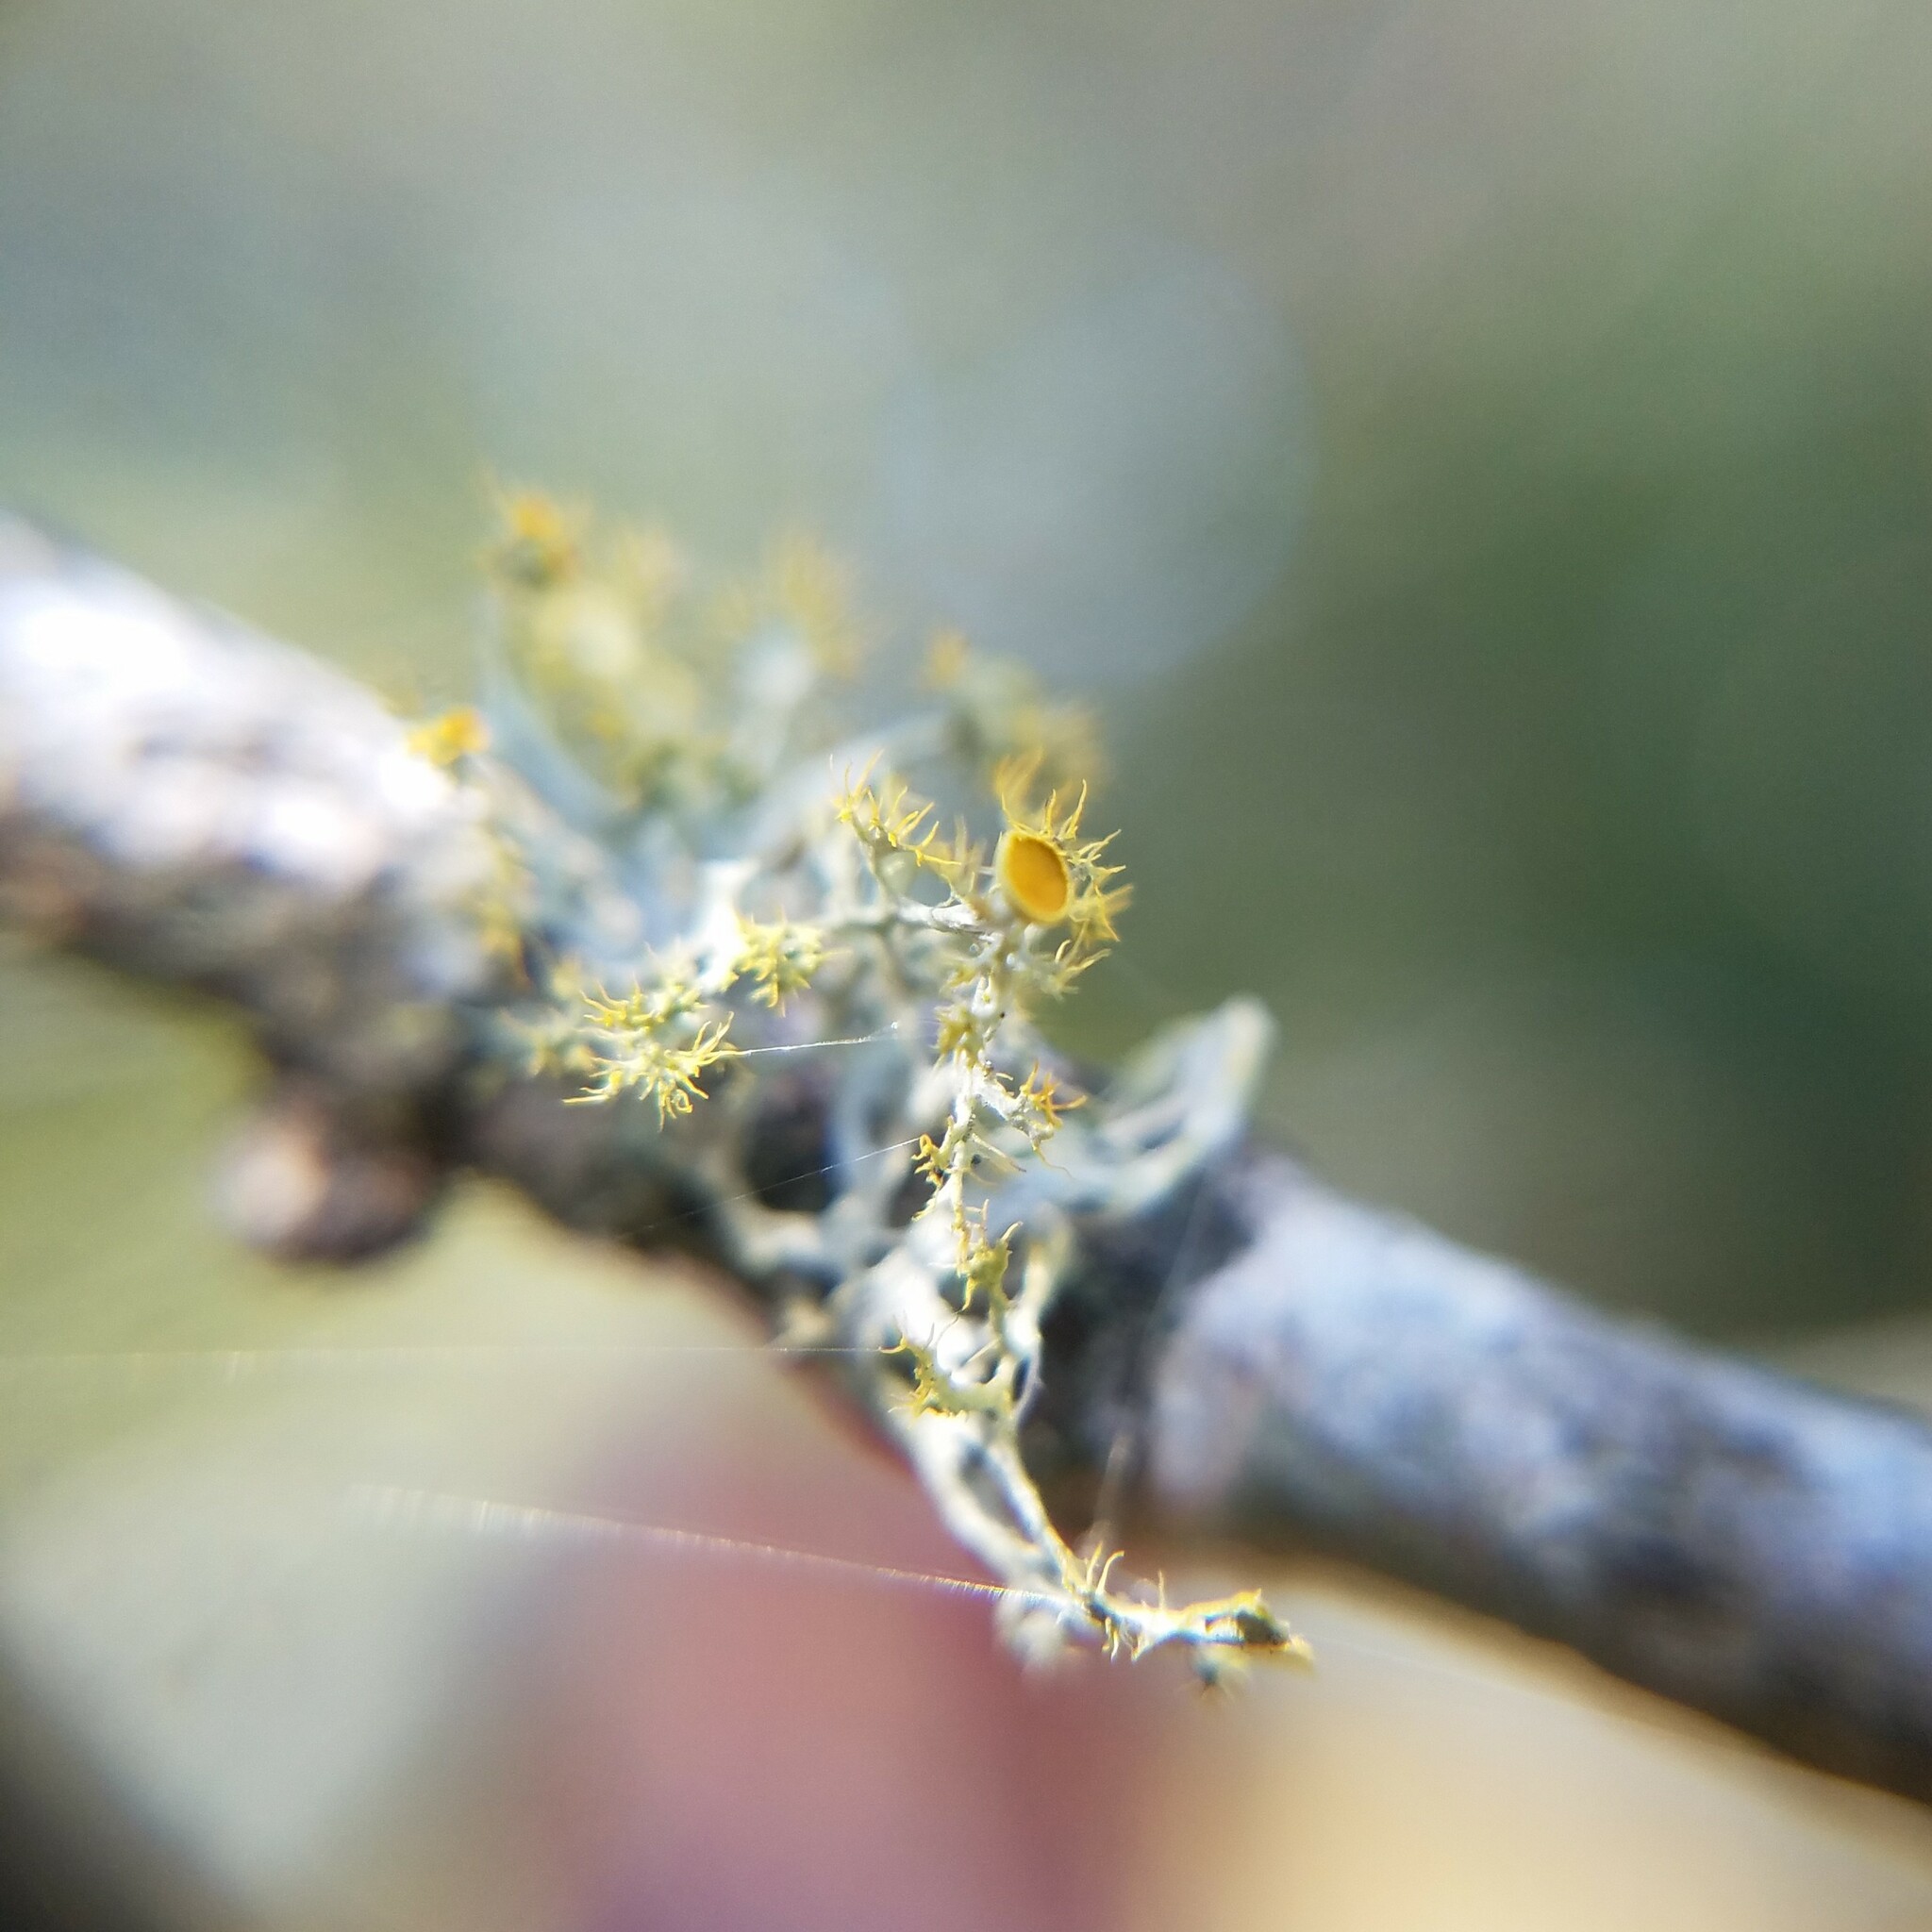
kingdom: Fungi
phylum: Ascomycota
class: Lecanoromycetes
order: Teloschistales
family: Teloschistaceae
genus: Niorma
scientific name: Niorma chrysophthalma
